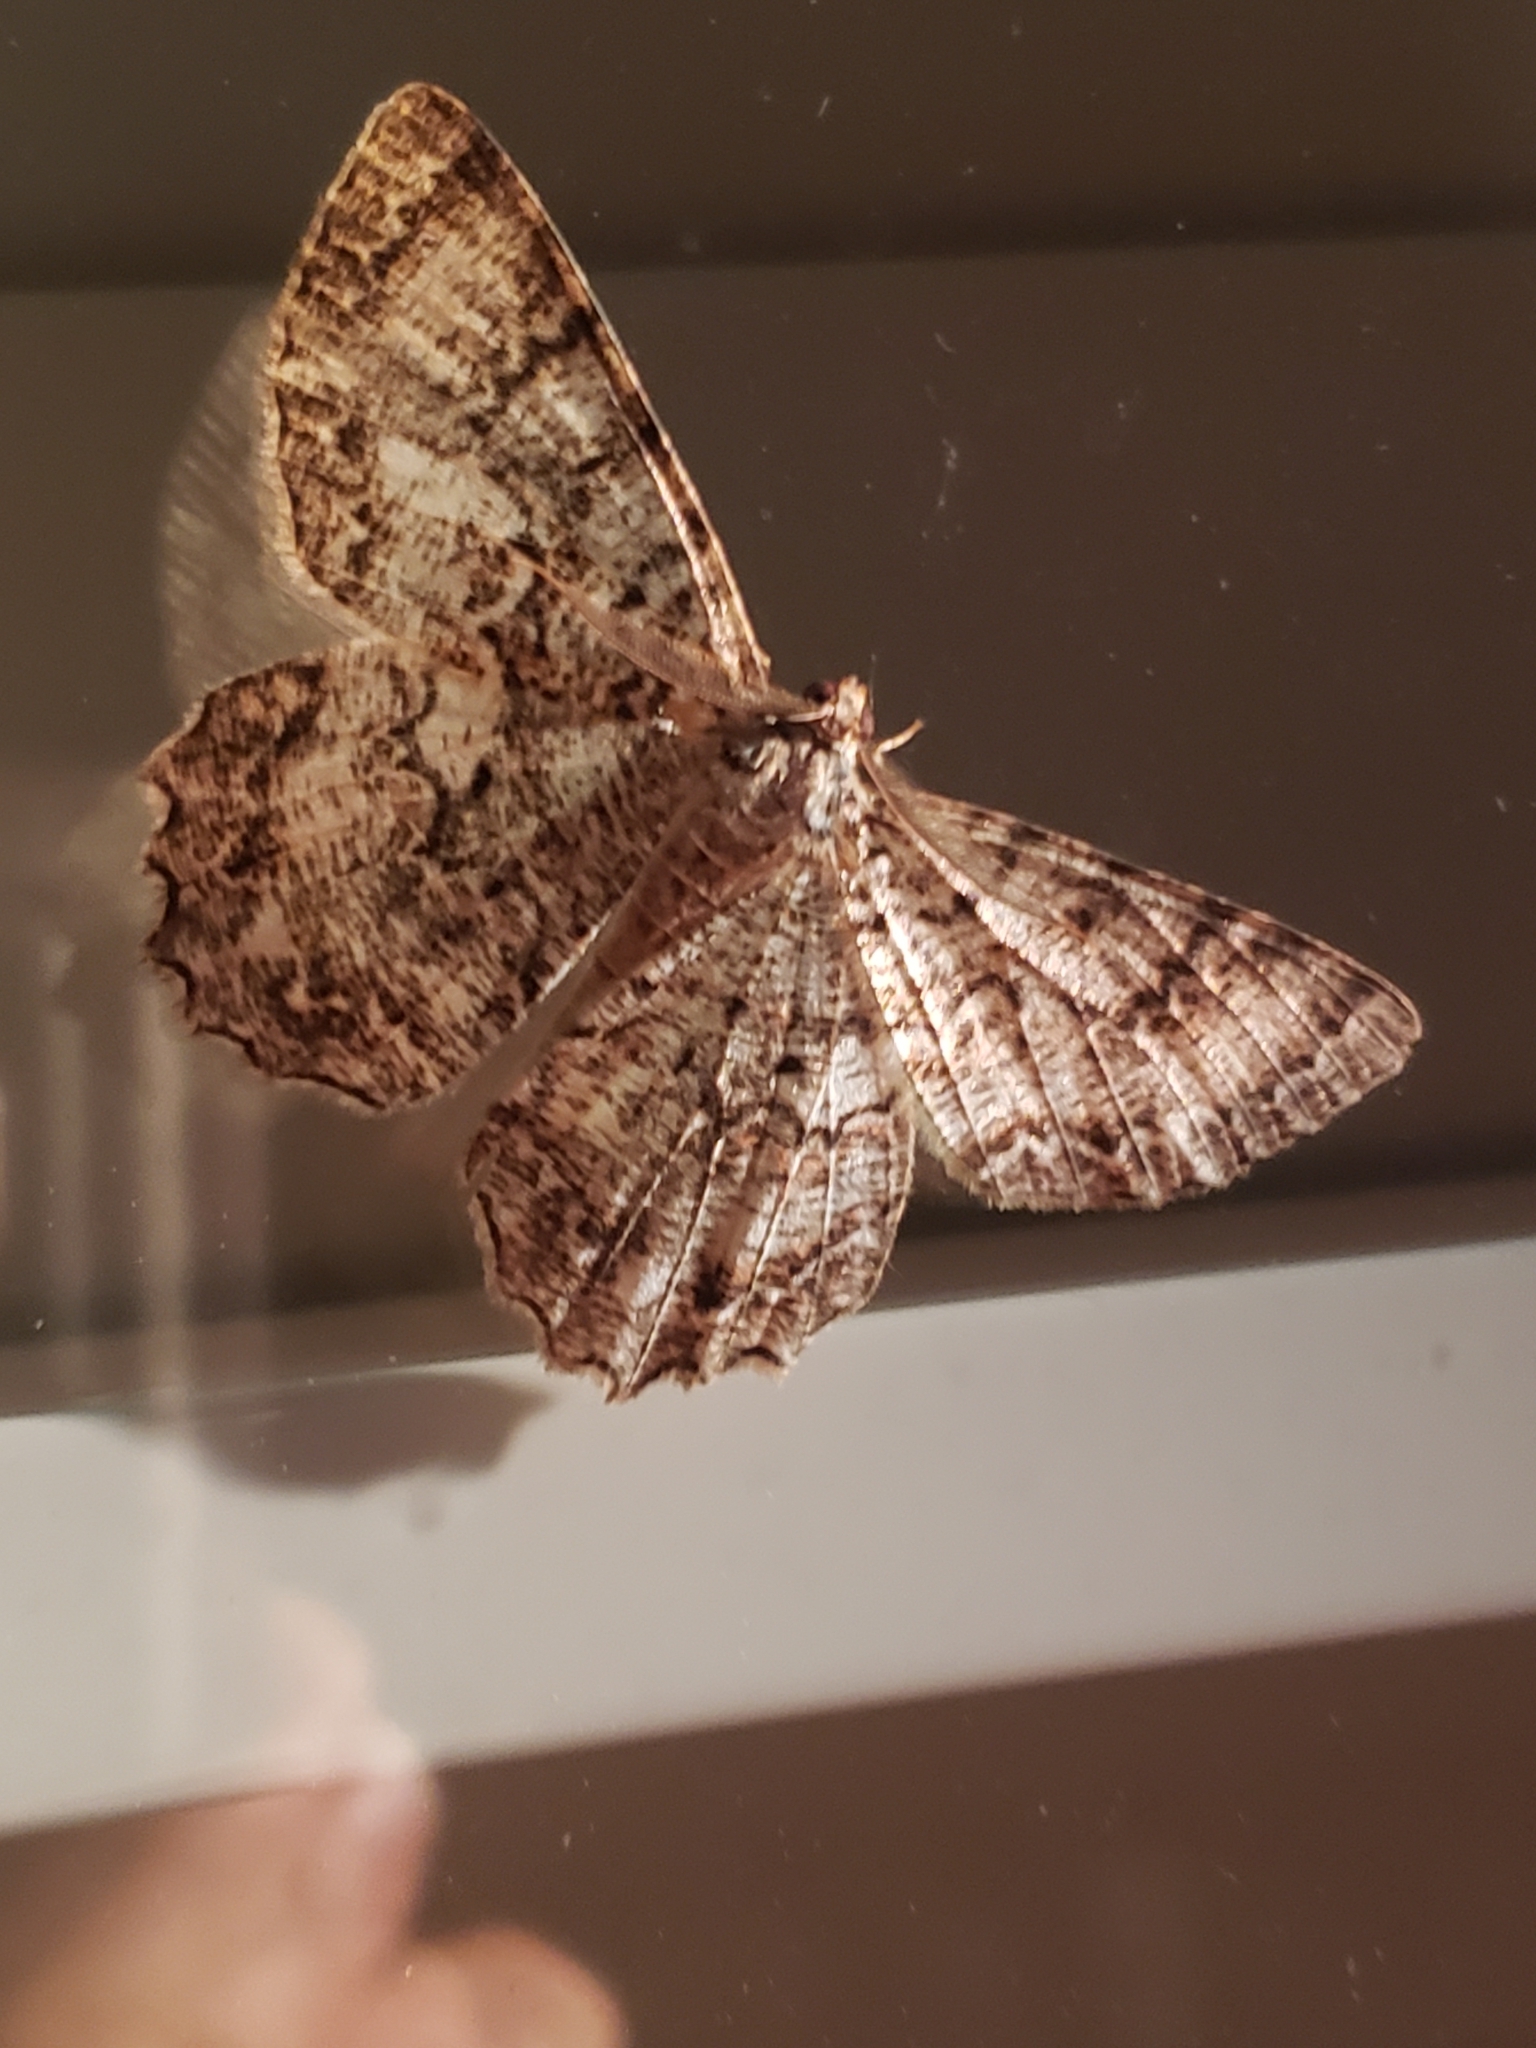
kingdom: Animalia
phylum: Arthropoda
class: Insecta
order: Lepidoptera
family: Geometridae
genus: Epimecis
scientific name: Epimecis hortaria
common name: Tulip-tree beauty
